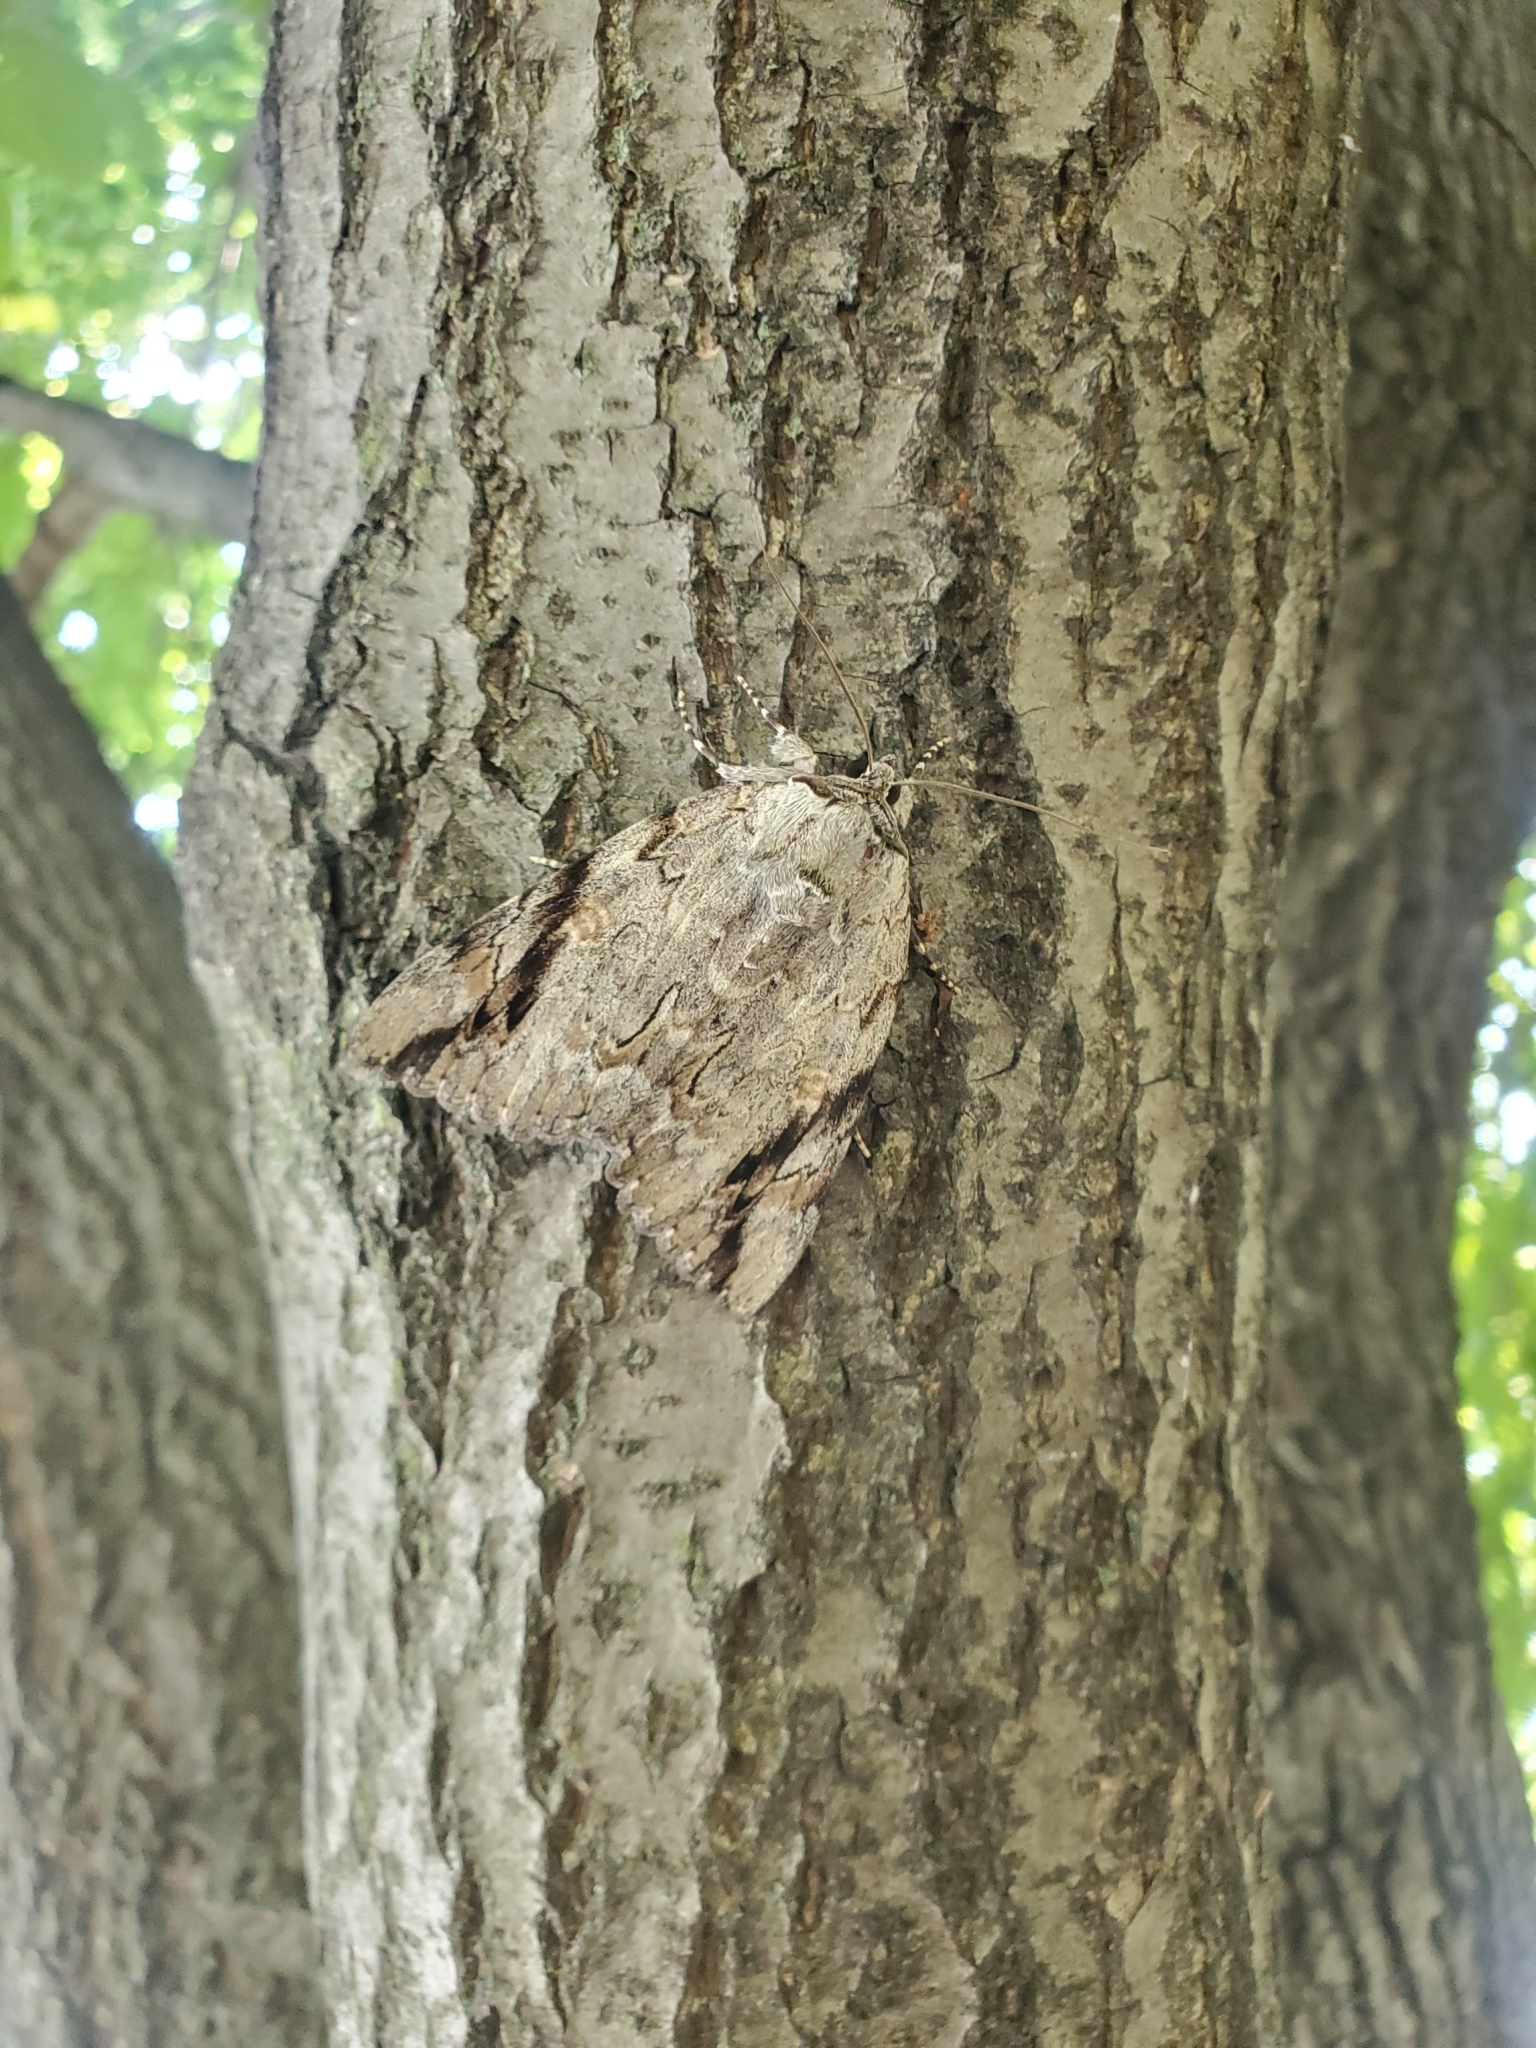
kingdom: Animalia
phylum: Arthropoda
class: Insecta
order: Lepidoptera
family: Erebidae
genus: Catocala
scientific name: Catocala maestosa
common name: Sad underwing
